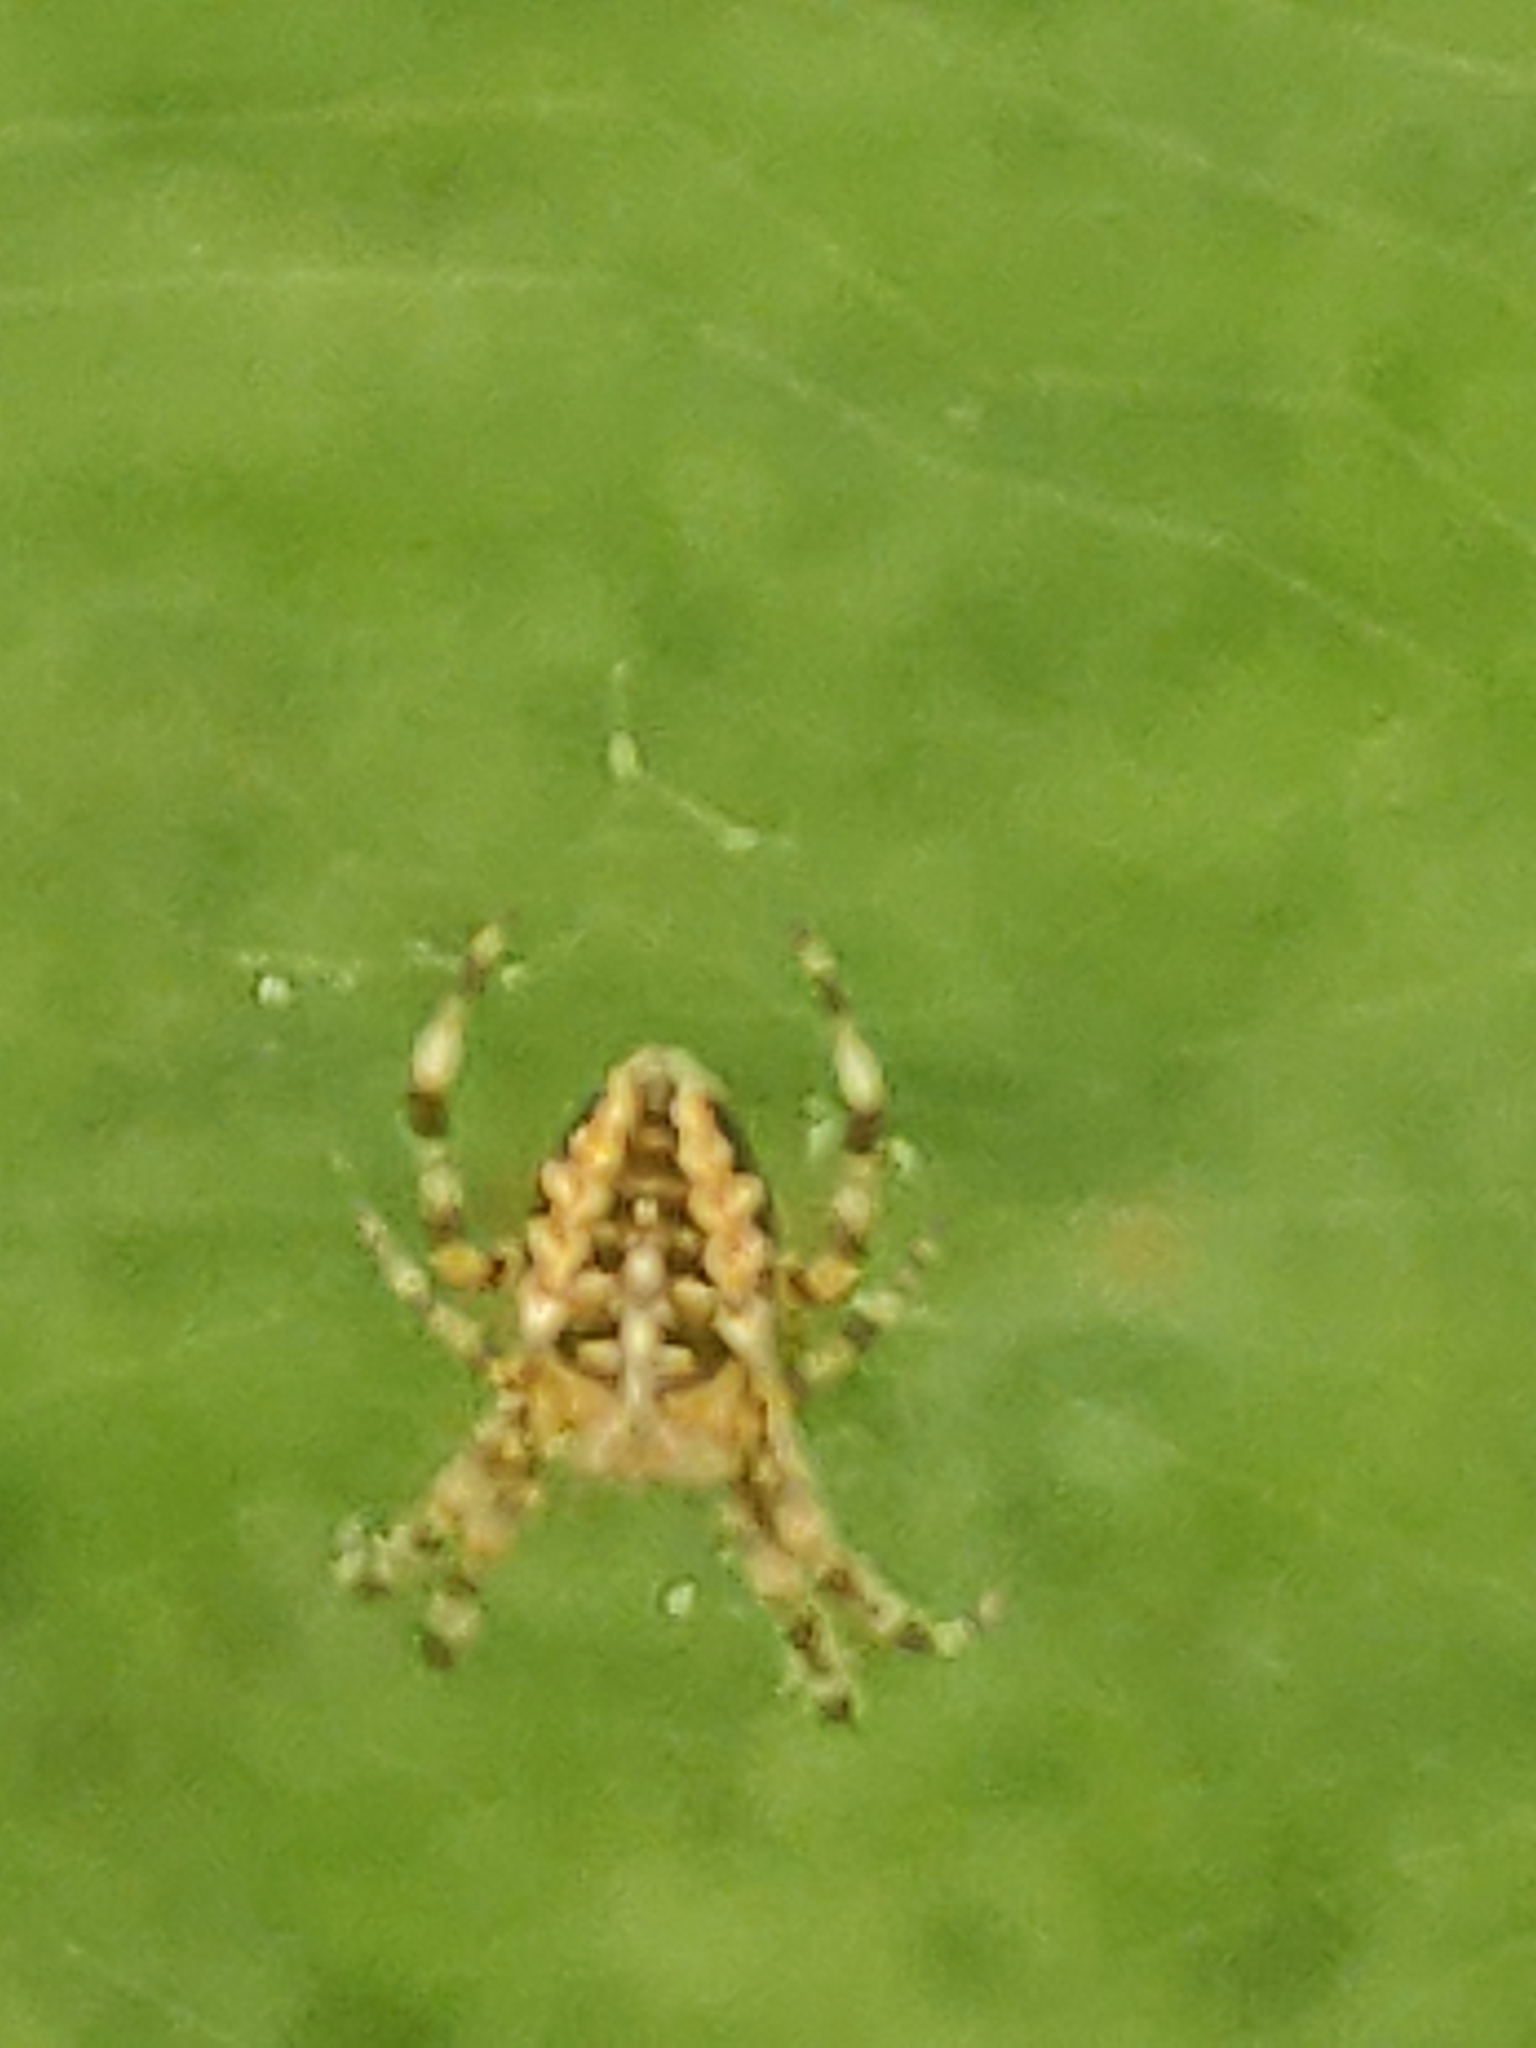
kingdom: Animalia
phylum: Arthropoda
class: Arachnida
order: Araneae
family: Araneidae
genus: Araneus
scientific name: Araneus diadematus
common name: Cross orbweaver
